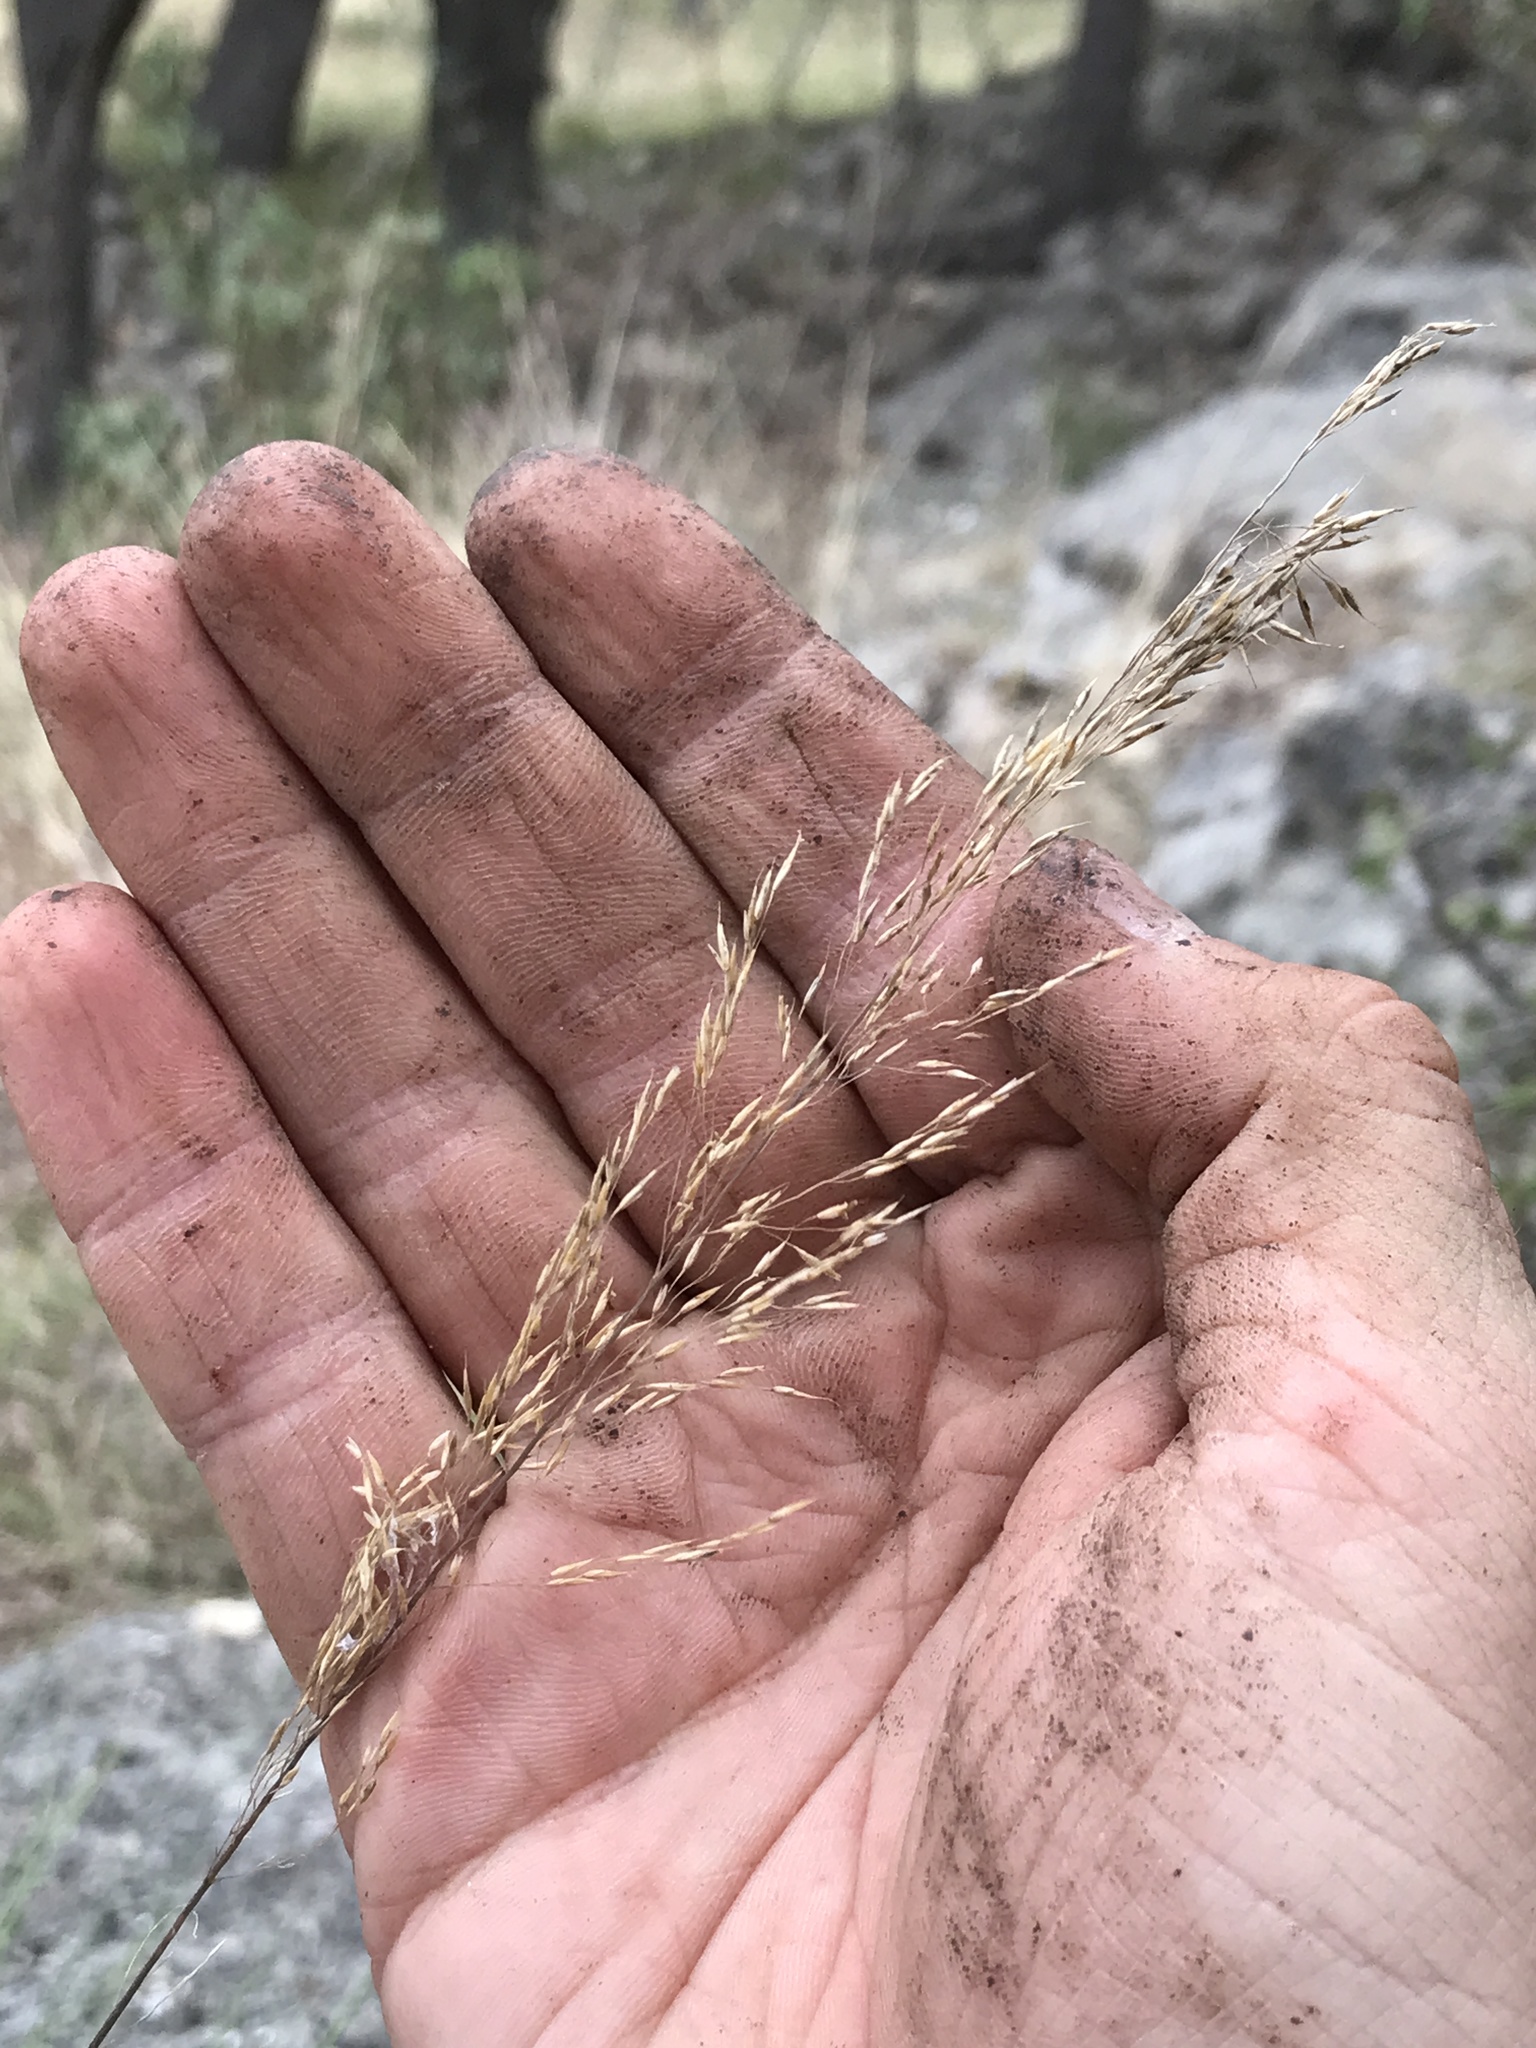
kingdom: Plantae
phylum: Tracheophyta
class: Liliopsida
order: Poales
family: Poaceae
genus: Muhlenbergia
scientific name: Muhlenbergia involuta
